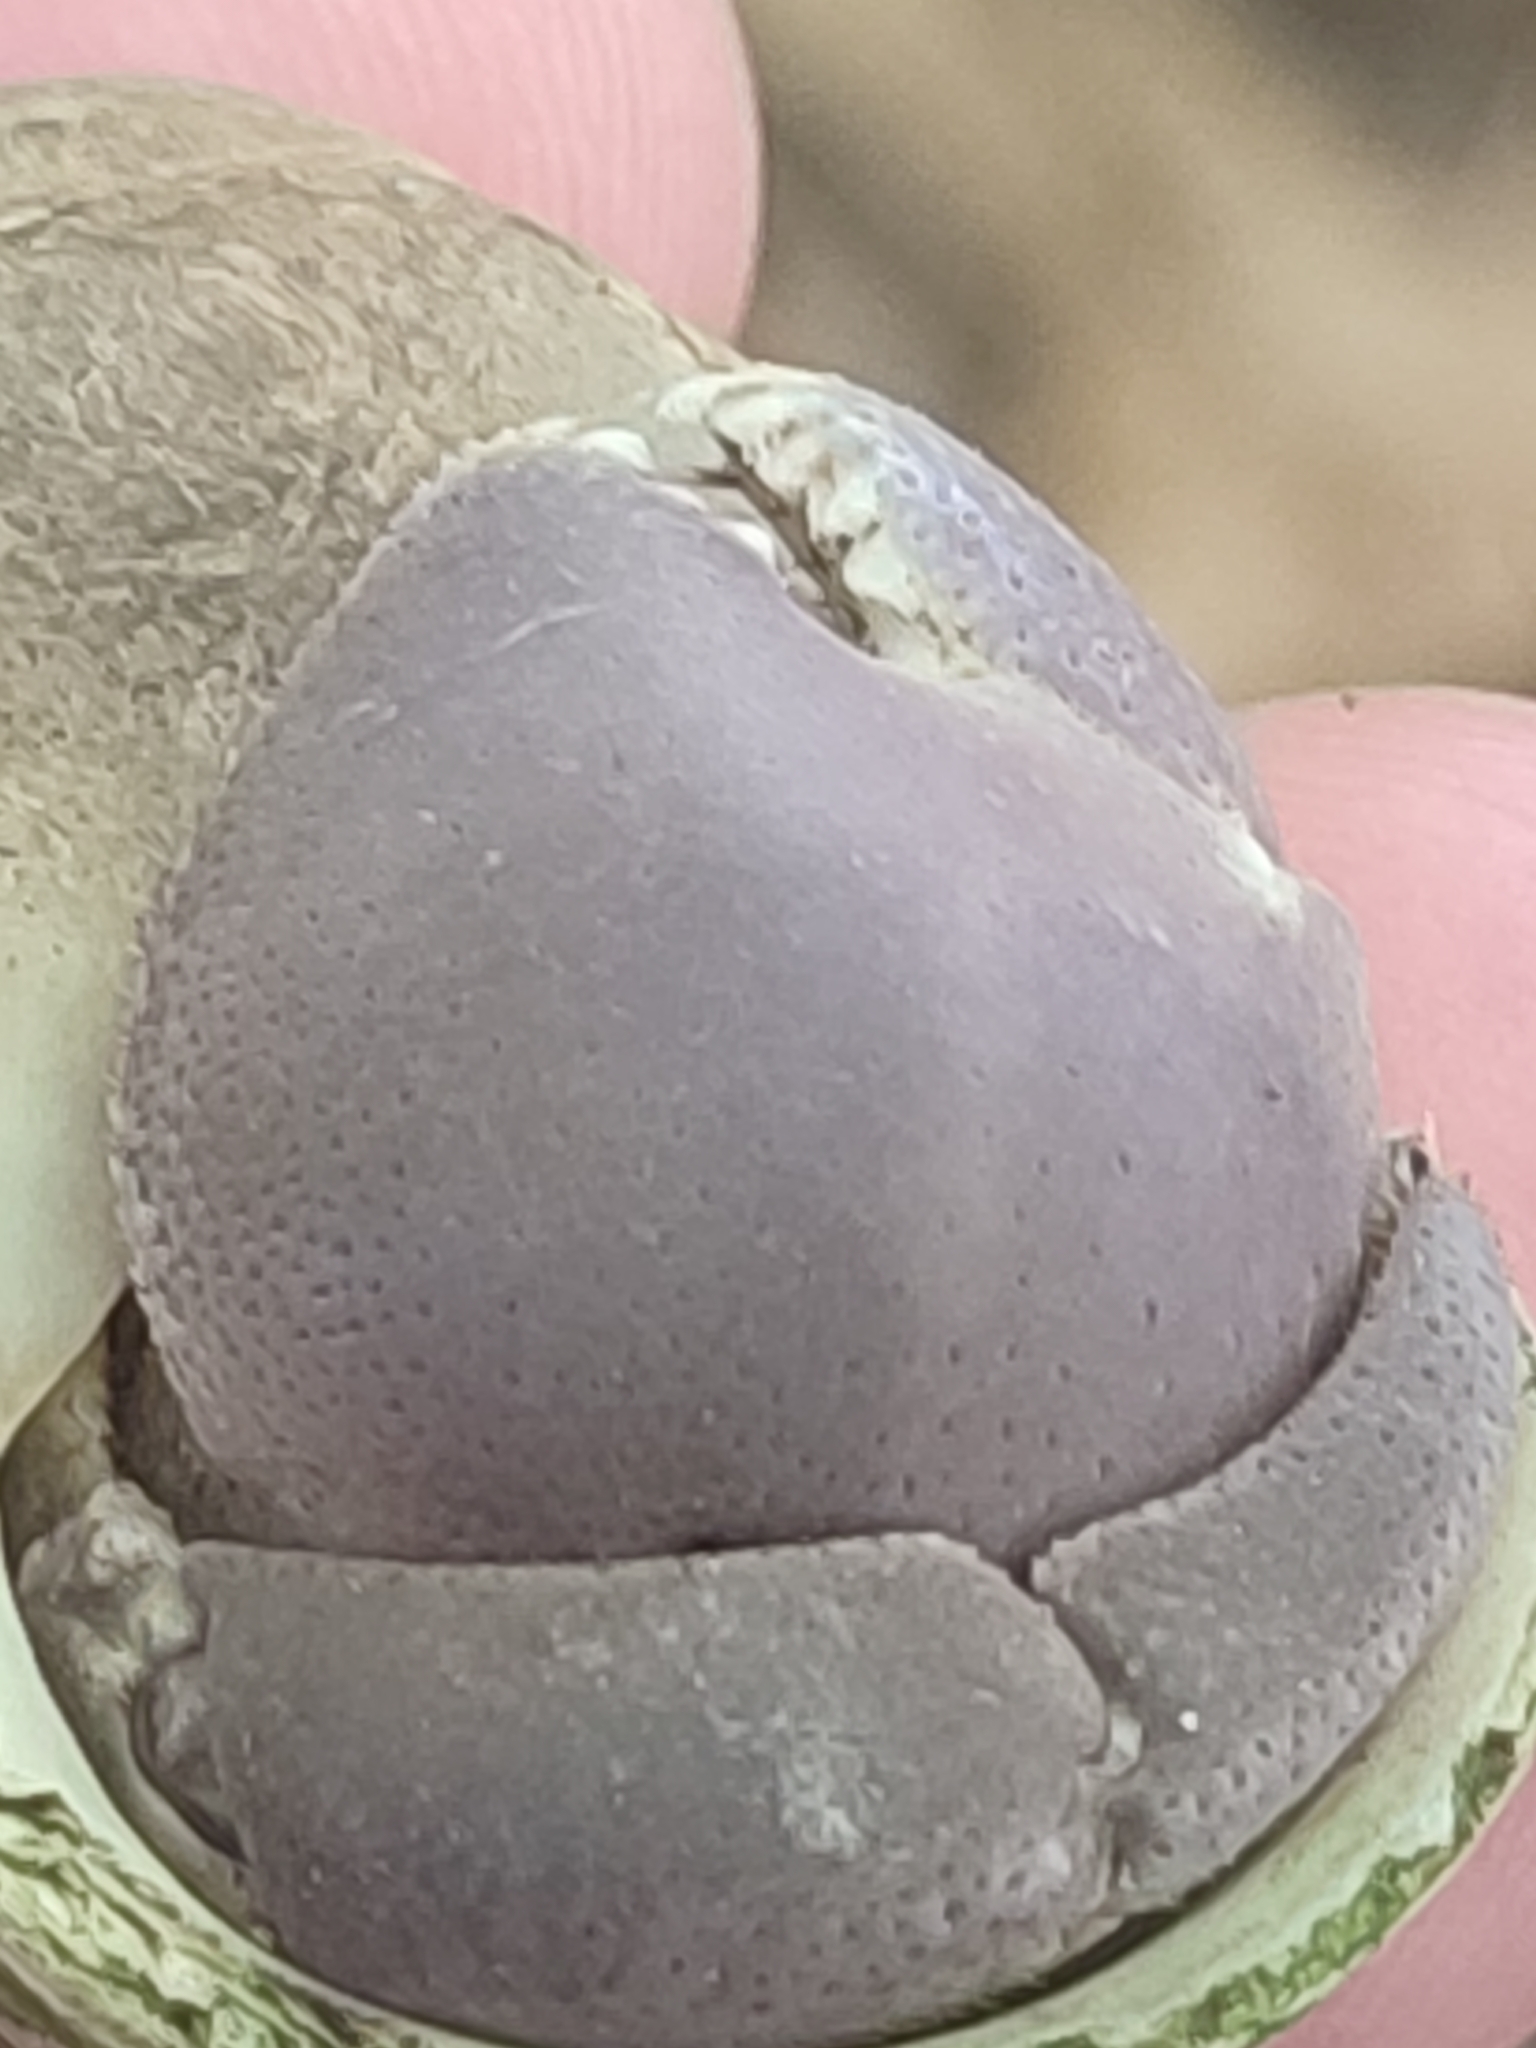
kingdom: Animalia
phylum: Arthropoda
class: Malacostraca
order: Decapoda
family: Coenobitidae
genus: Coenobita
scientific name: Coenobita brevimanus
